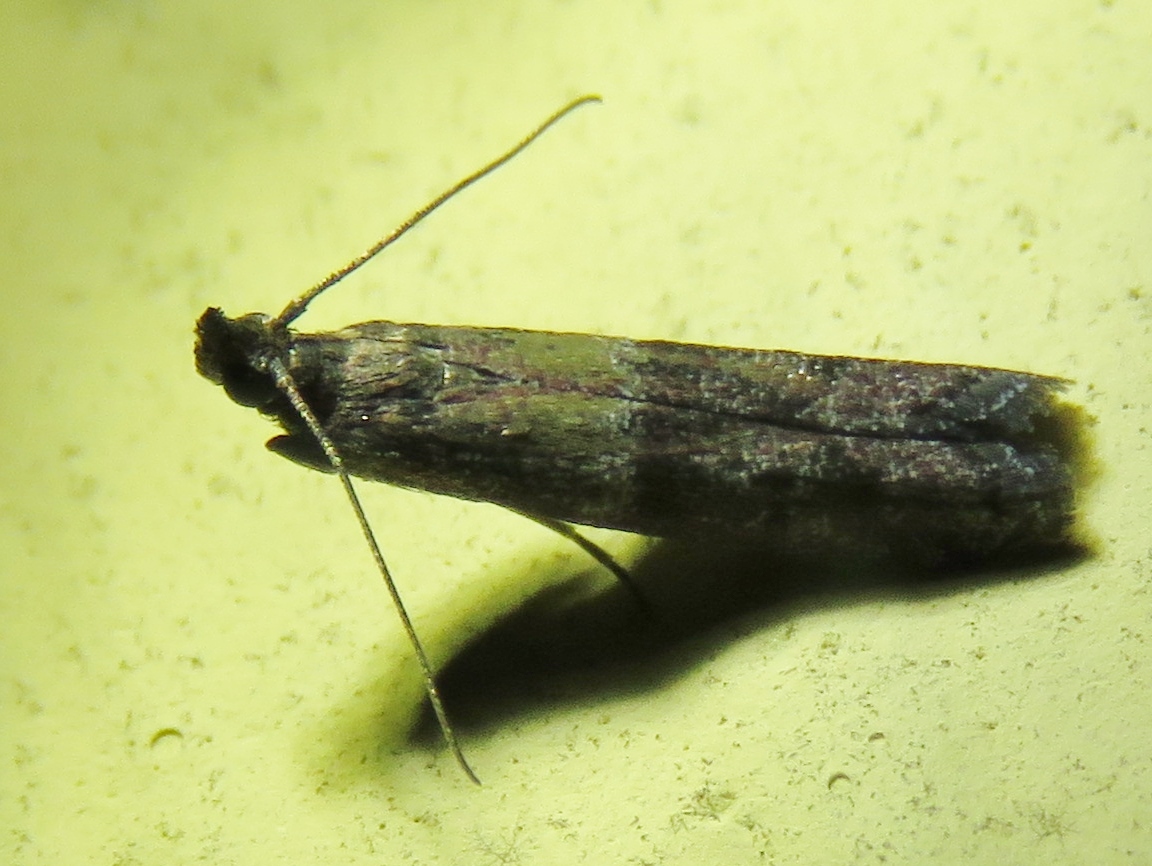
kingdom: Animalia
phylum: Arthropoda
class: Insecta
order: Lepidoptera
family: Pyralidae
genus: Ephestiodes
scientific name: Ephestiodes infimella
